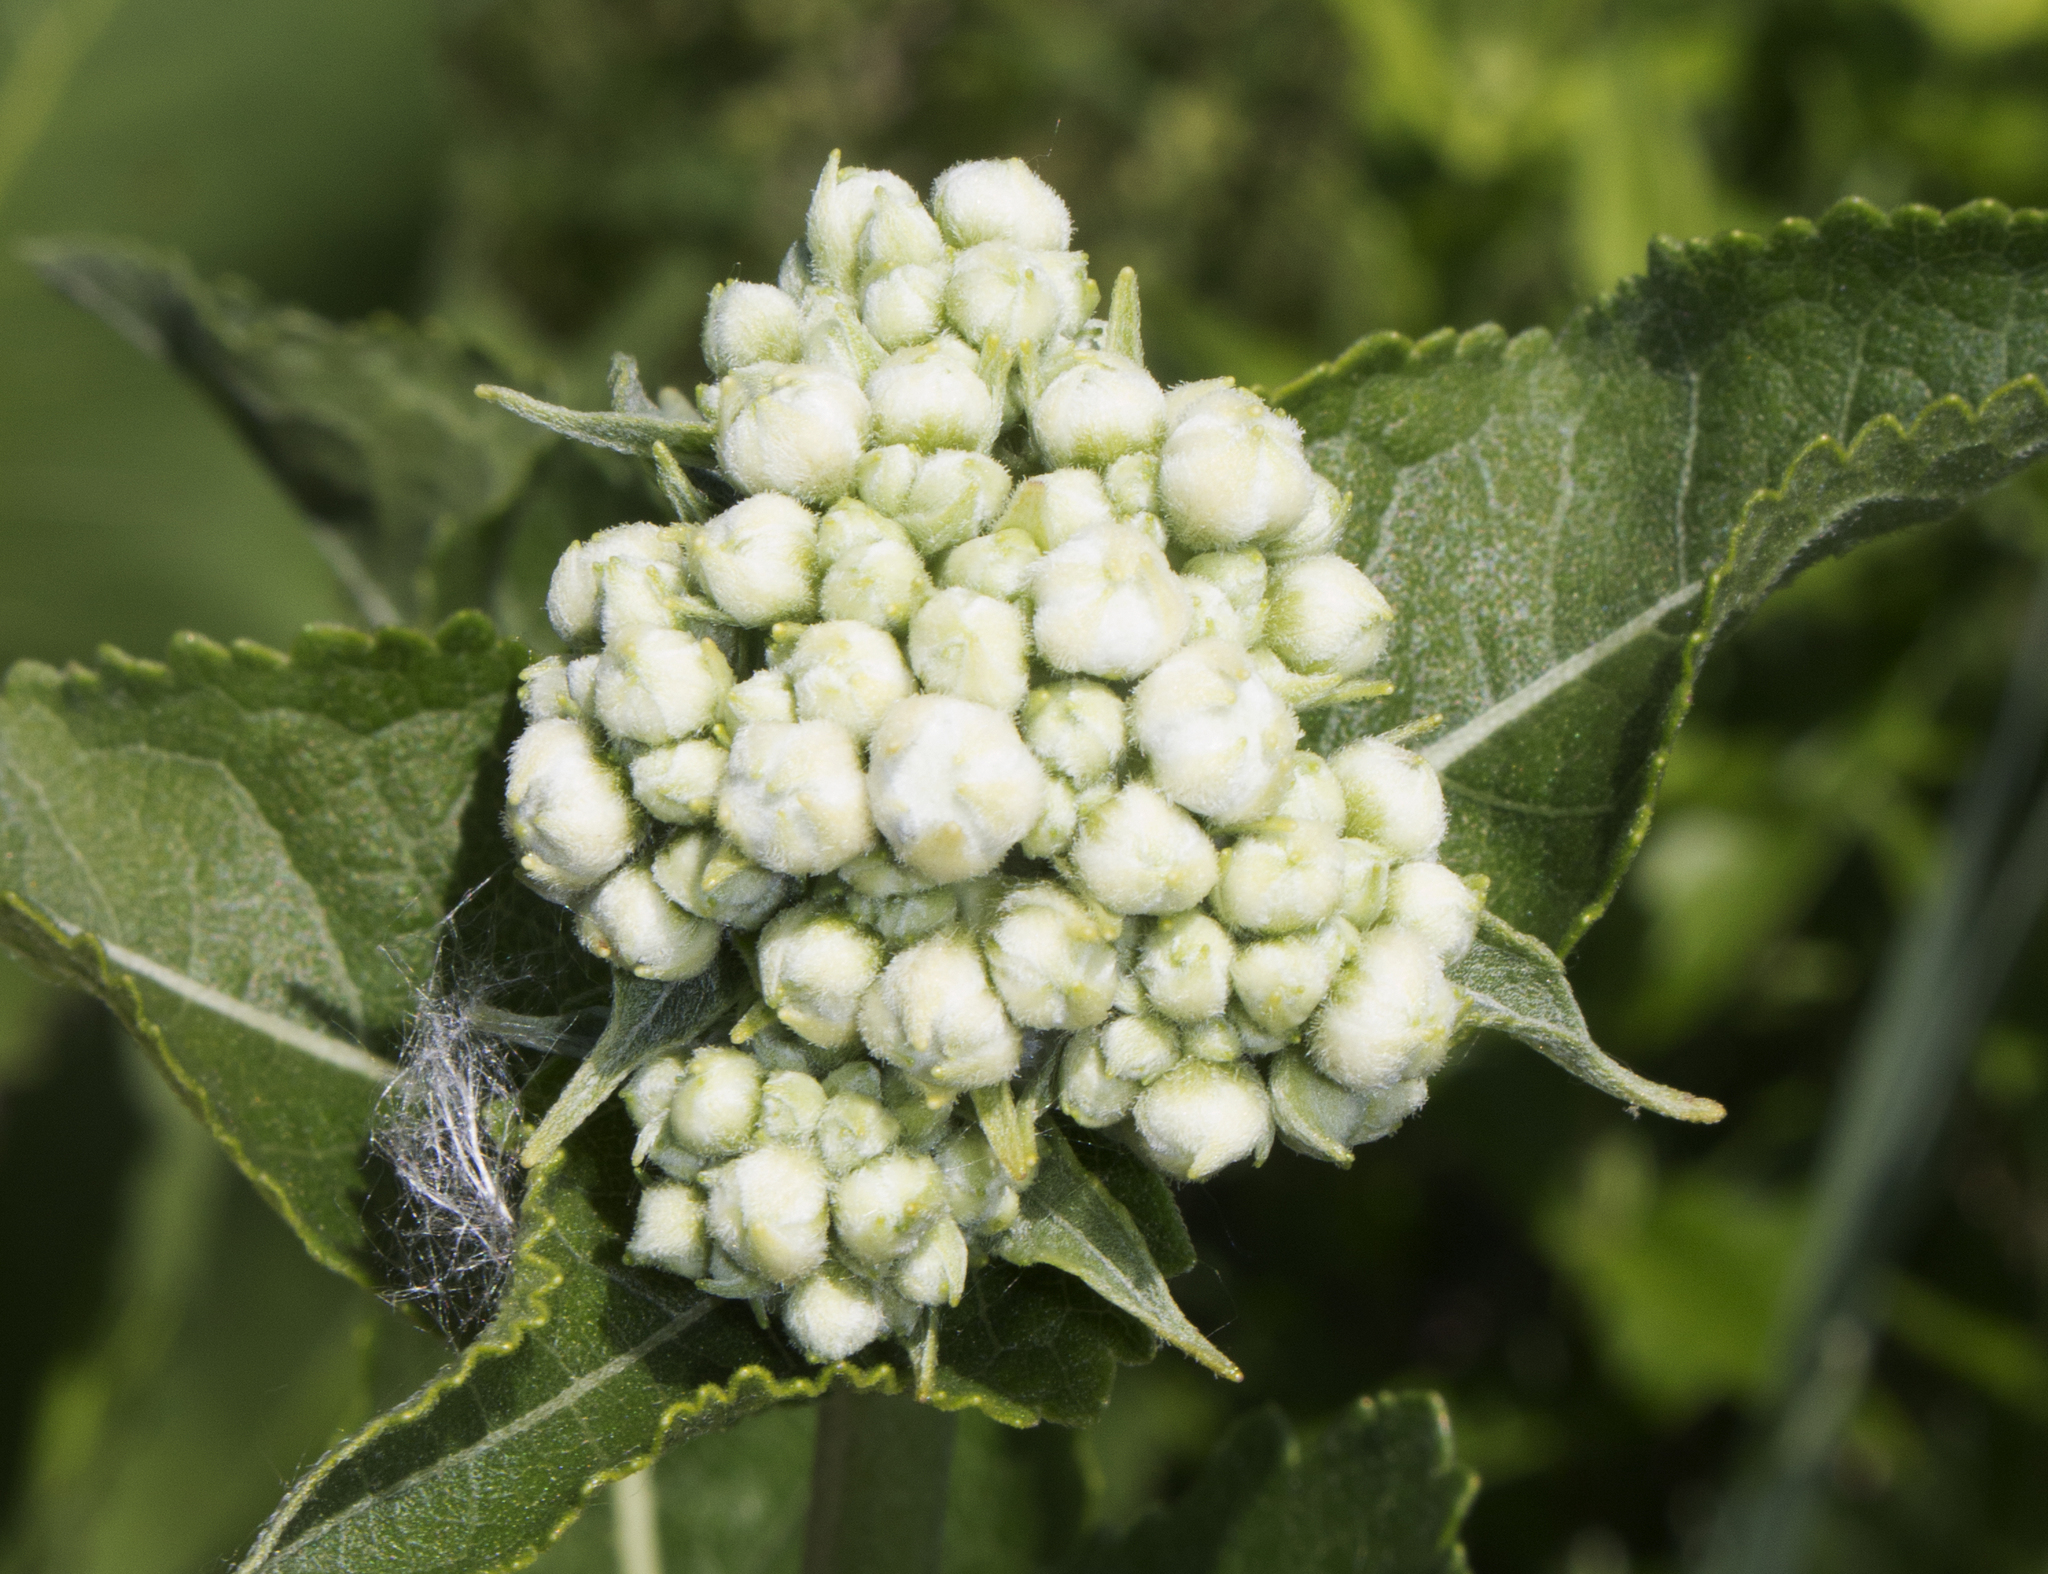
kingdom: Plantae
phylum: Tracheophyta
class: Magnoliopsida
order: Asterales
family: Asteraceae
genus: Parthenium
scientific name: Parthenium integrifolium
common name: American feverfew
